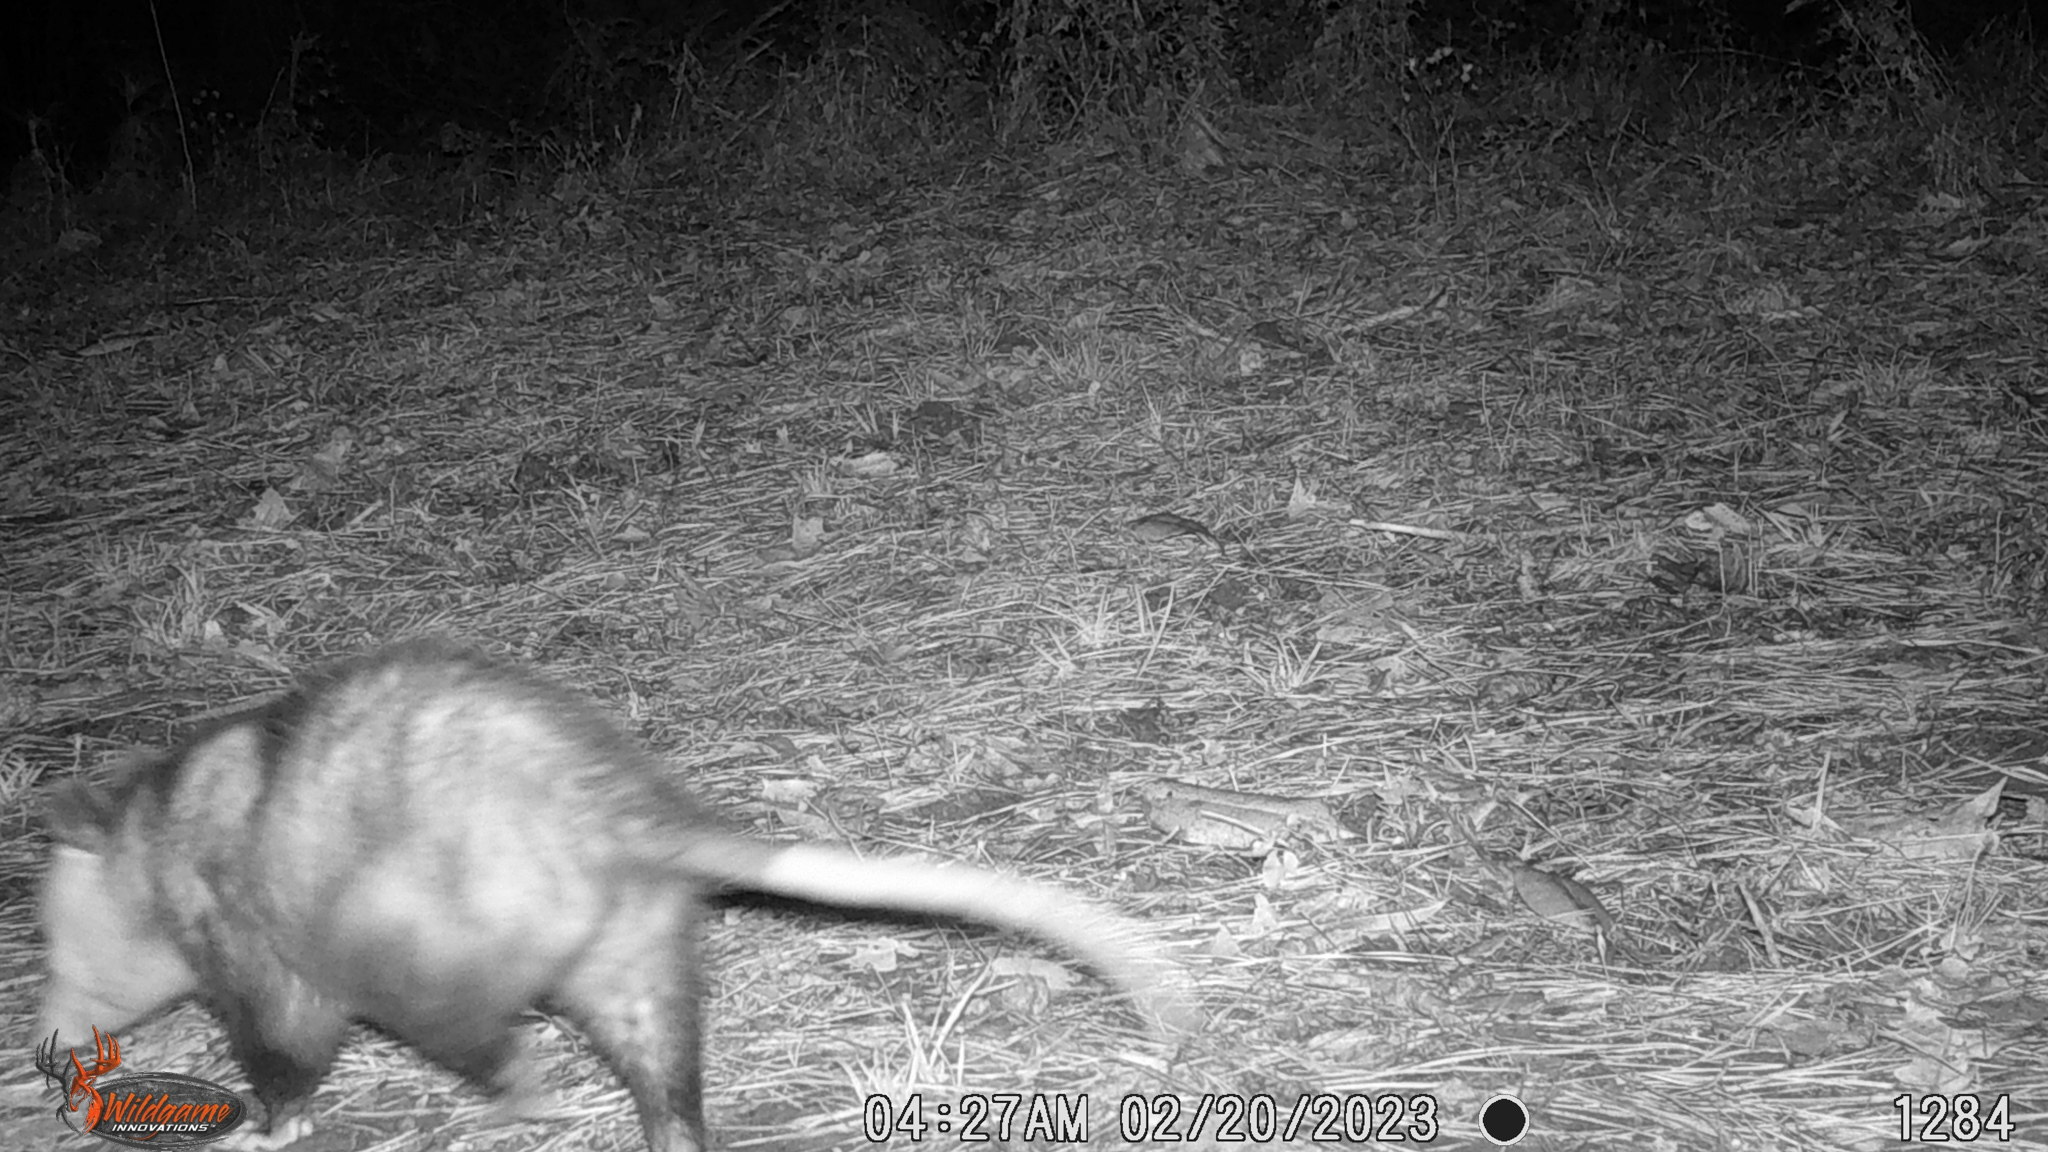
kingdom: Animalia
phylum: Chordata
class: Mammalia
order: Didelphimorphia
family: Didelphidae
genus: Didelphis
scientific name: Didelphis virginiana
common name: Virginia opossum
